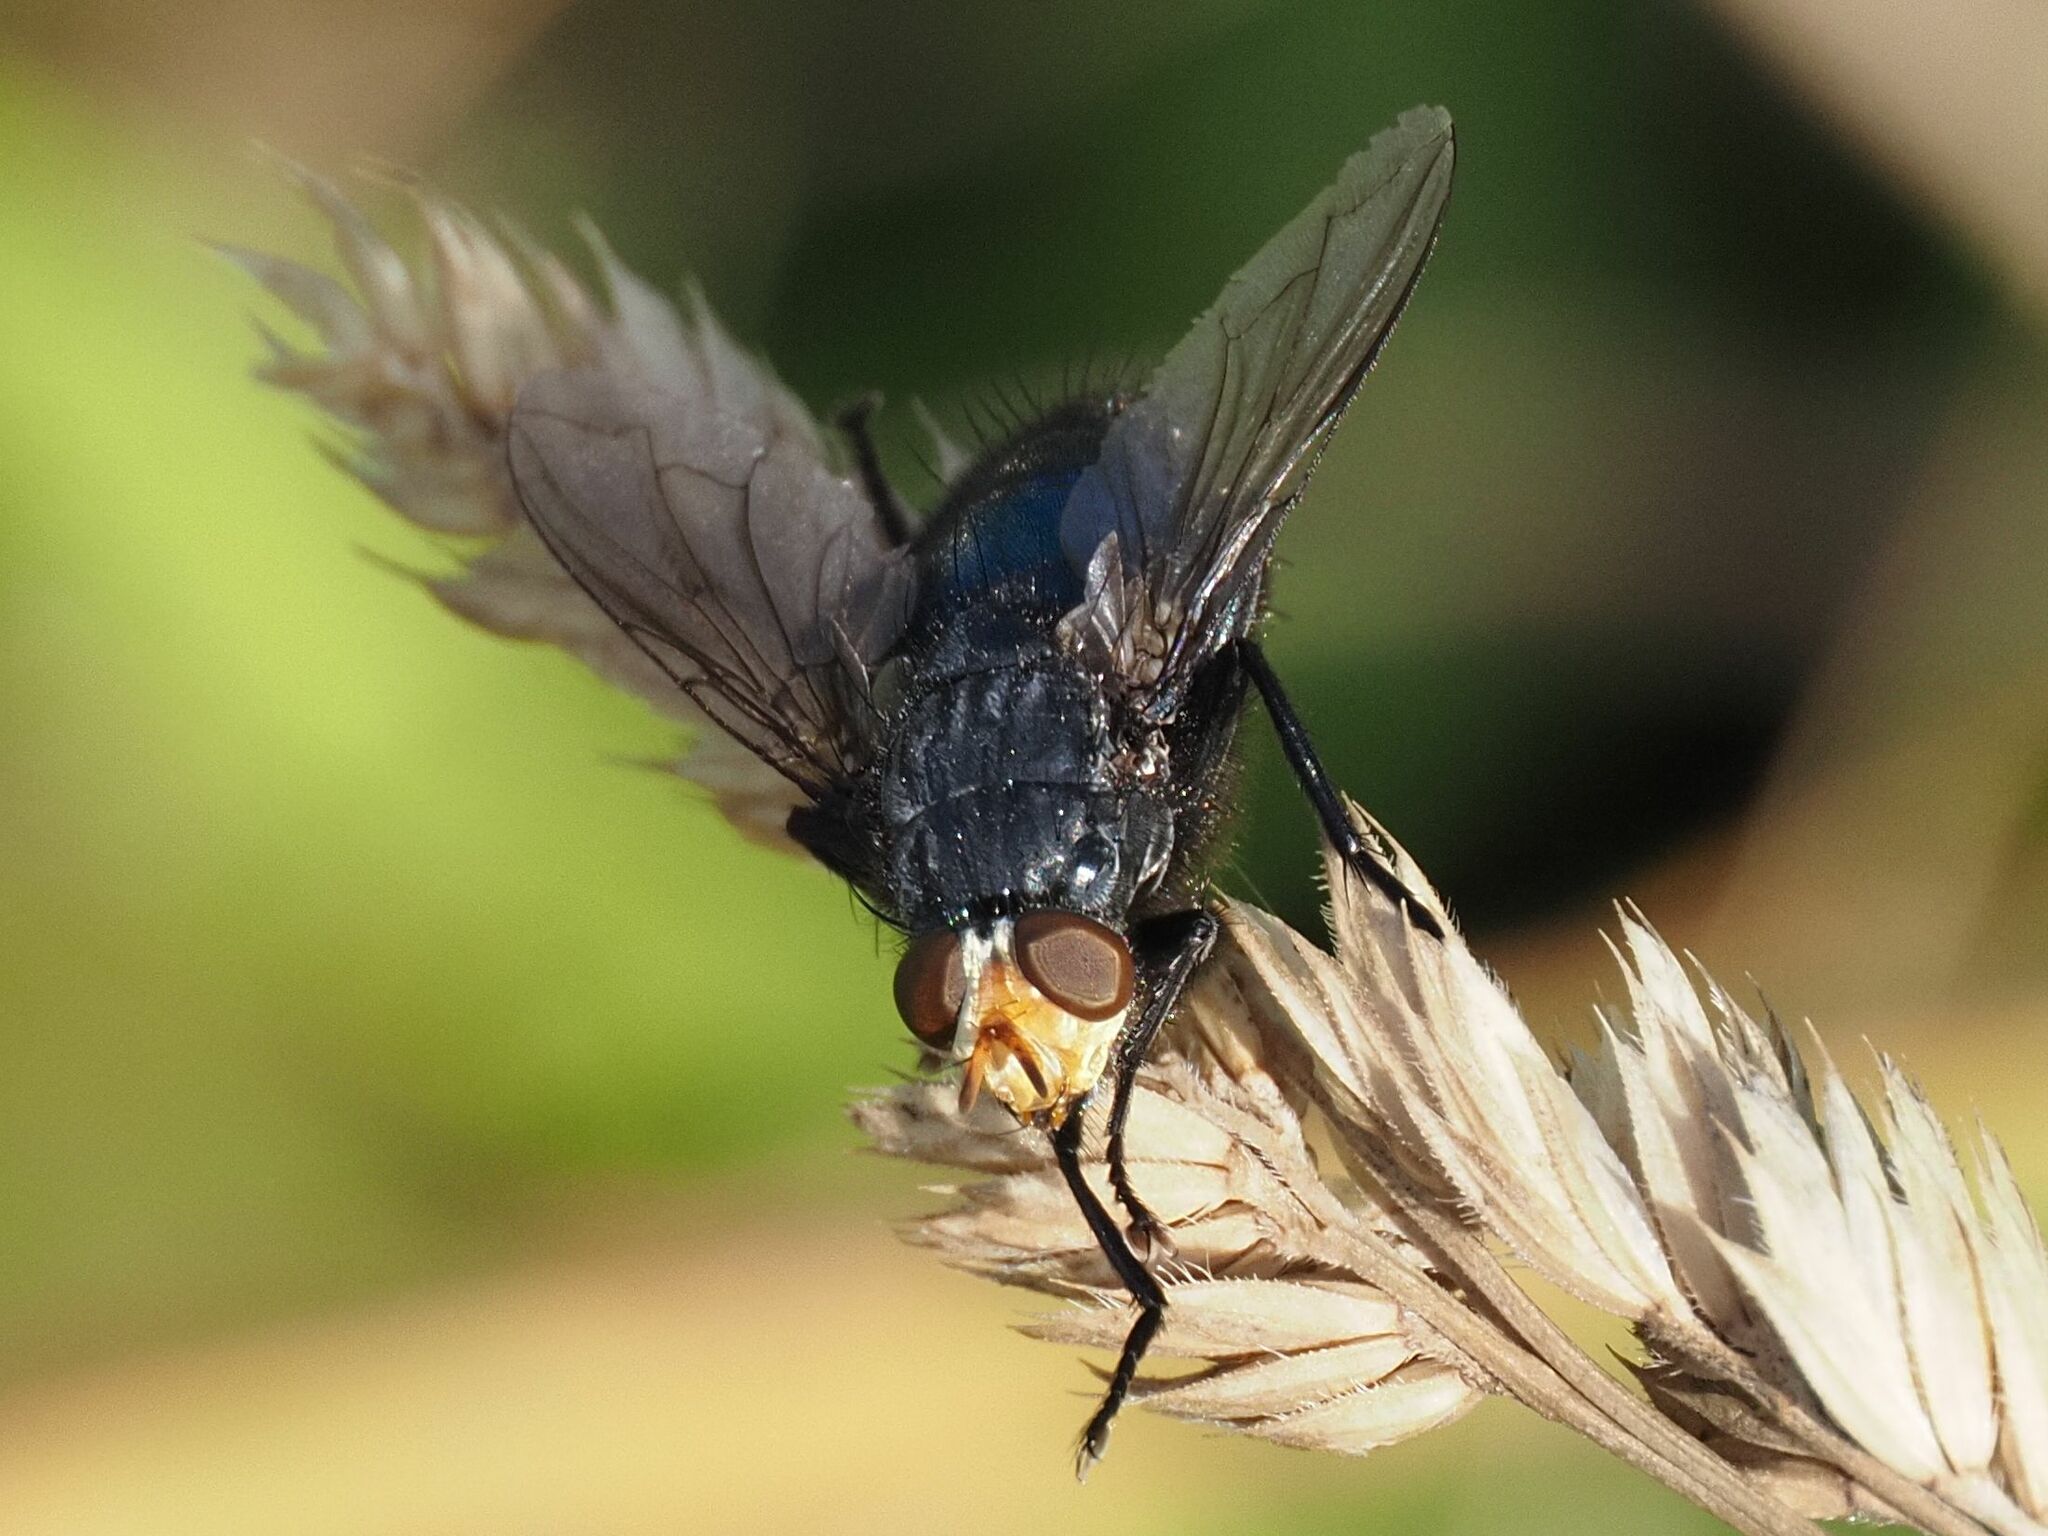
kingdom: Animalia
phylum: Arthropoda
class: Insecta
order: Diptera
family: Calliphoridae
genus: Cynomya
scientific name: Cynomya mortuorum
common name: Bluebottle blow fly
